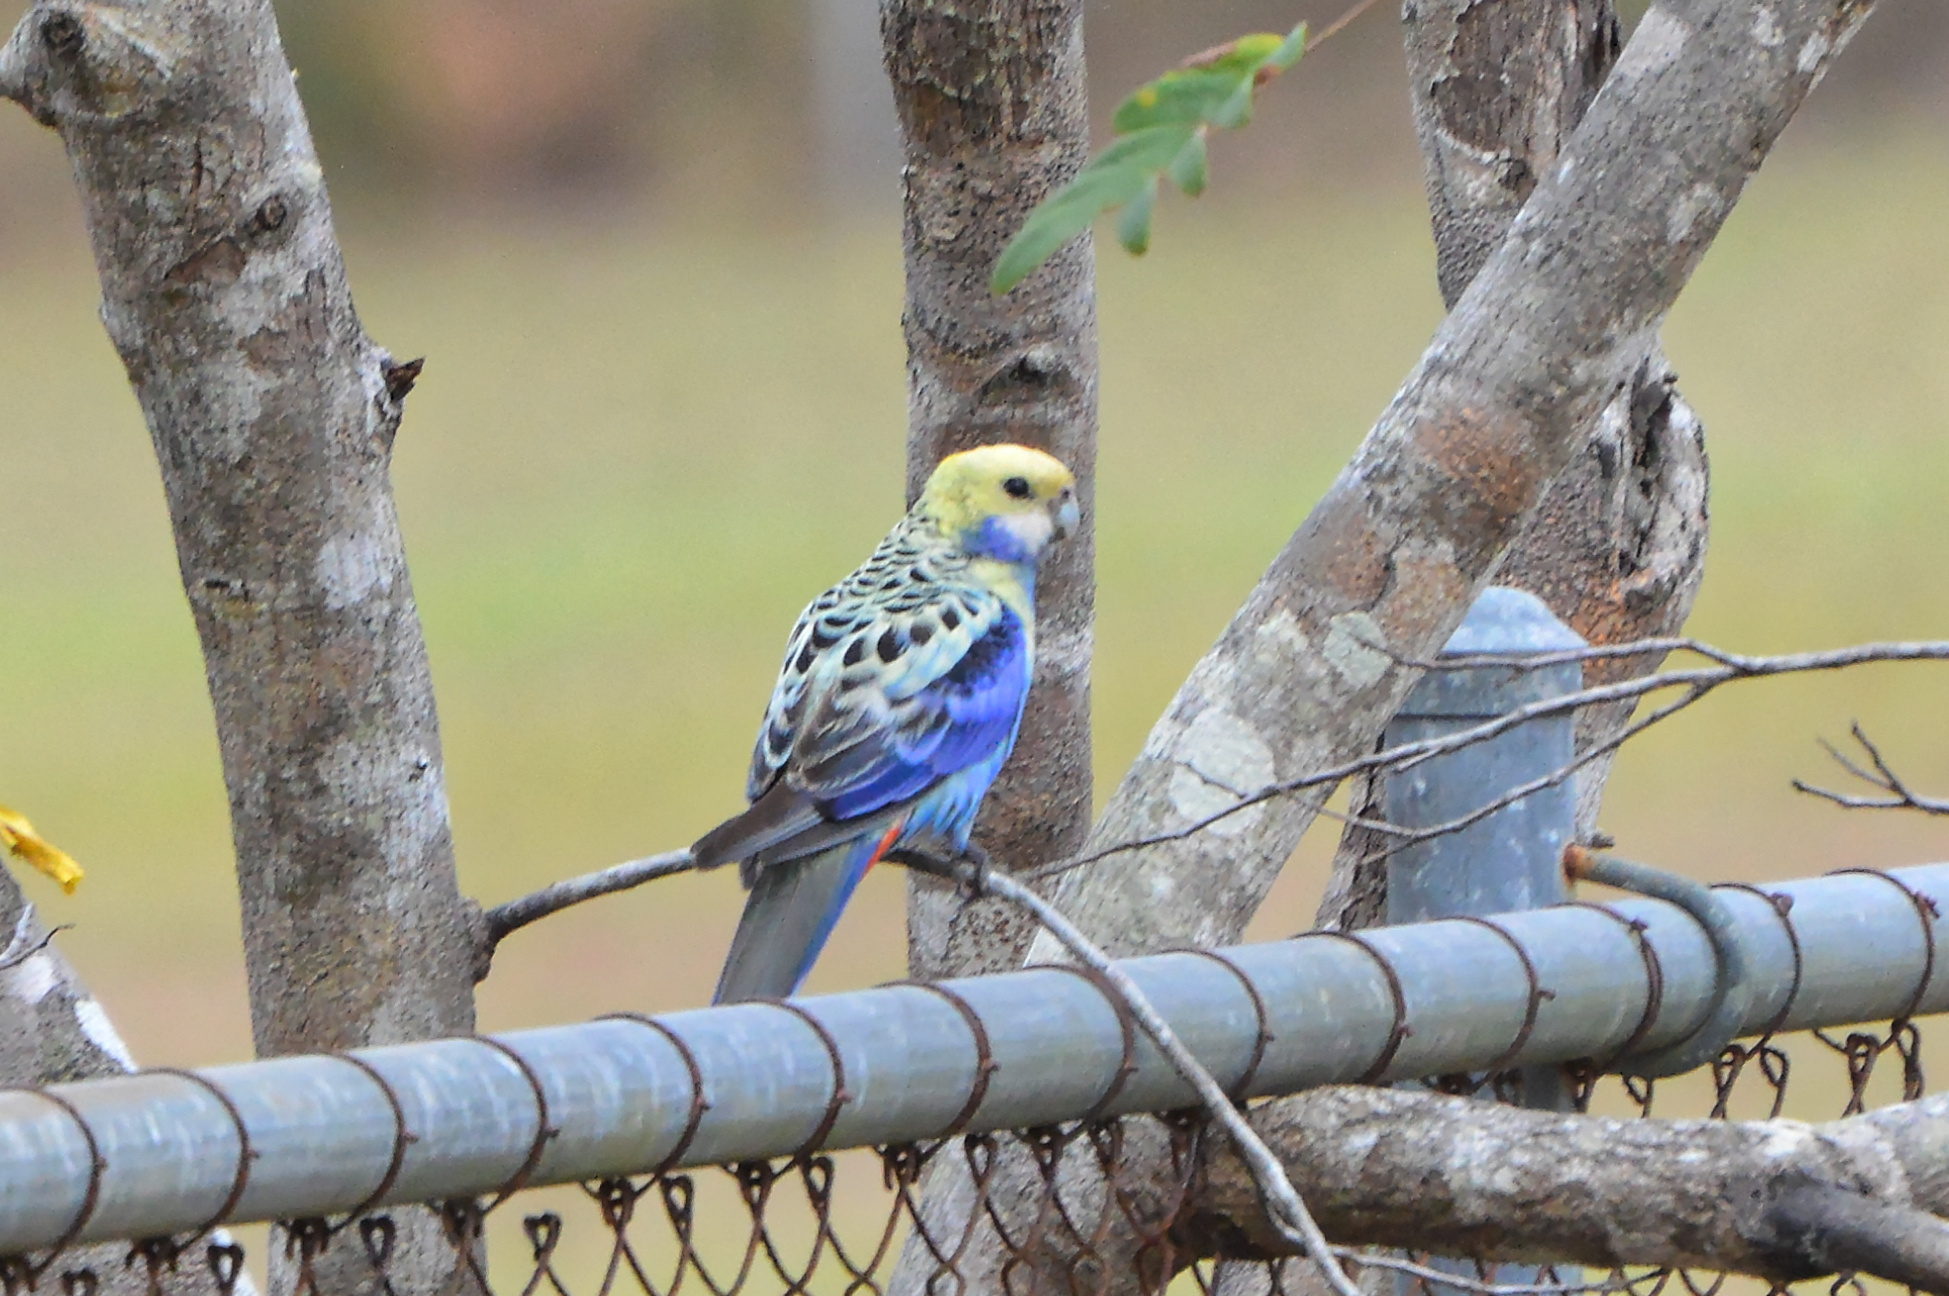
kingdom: Animalia
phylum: Chordata
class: Aves
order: Psittaciformes
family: Psittacidae
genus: Platycercus
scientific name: Platycercus adscitus
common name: Pale-headed rosella
